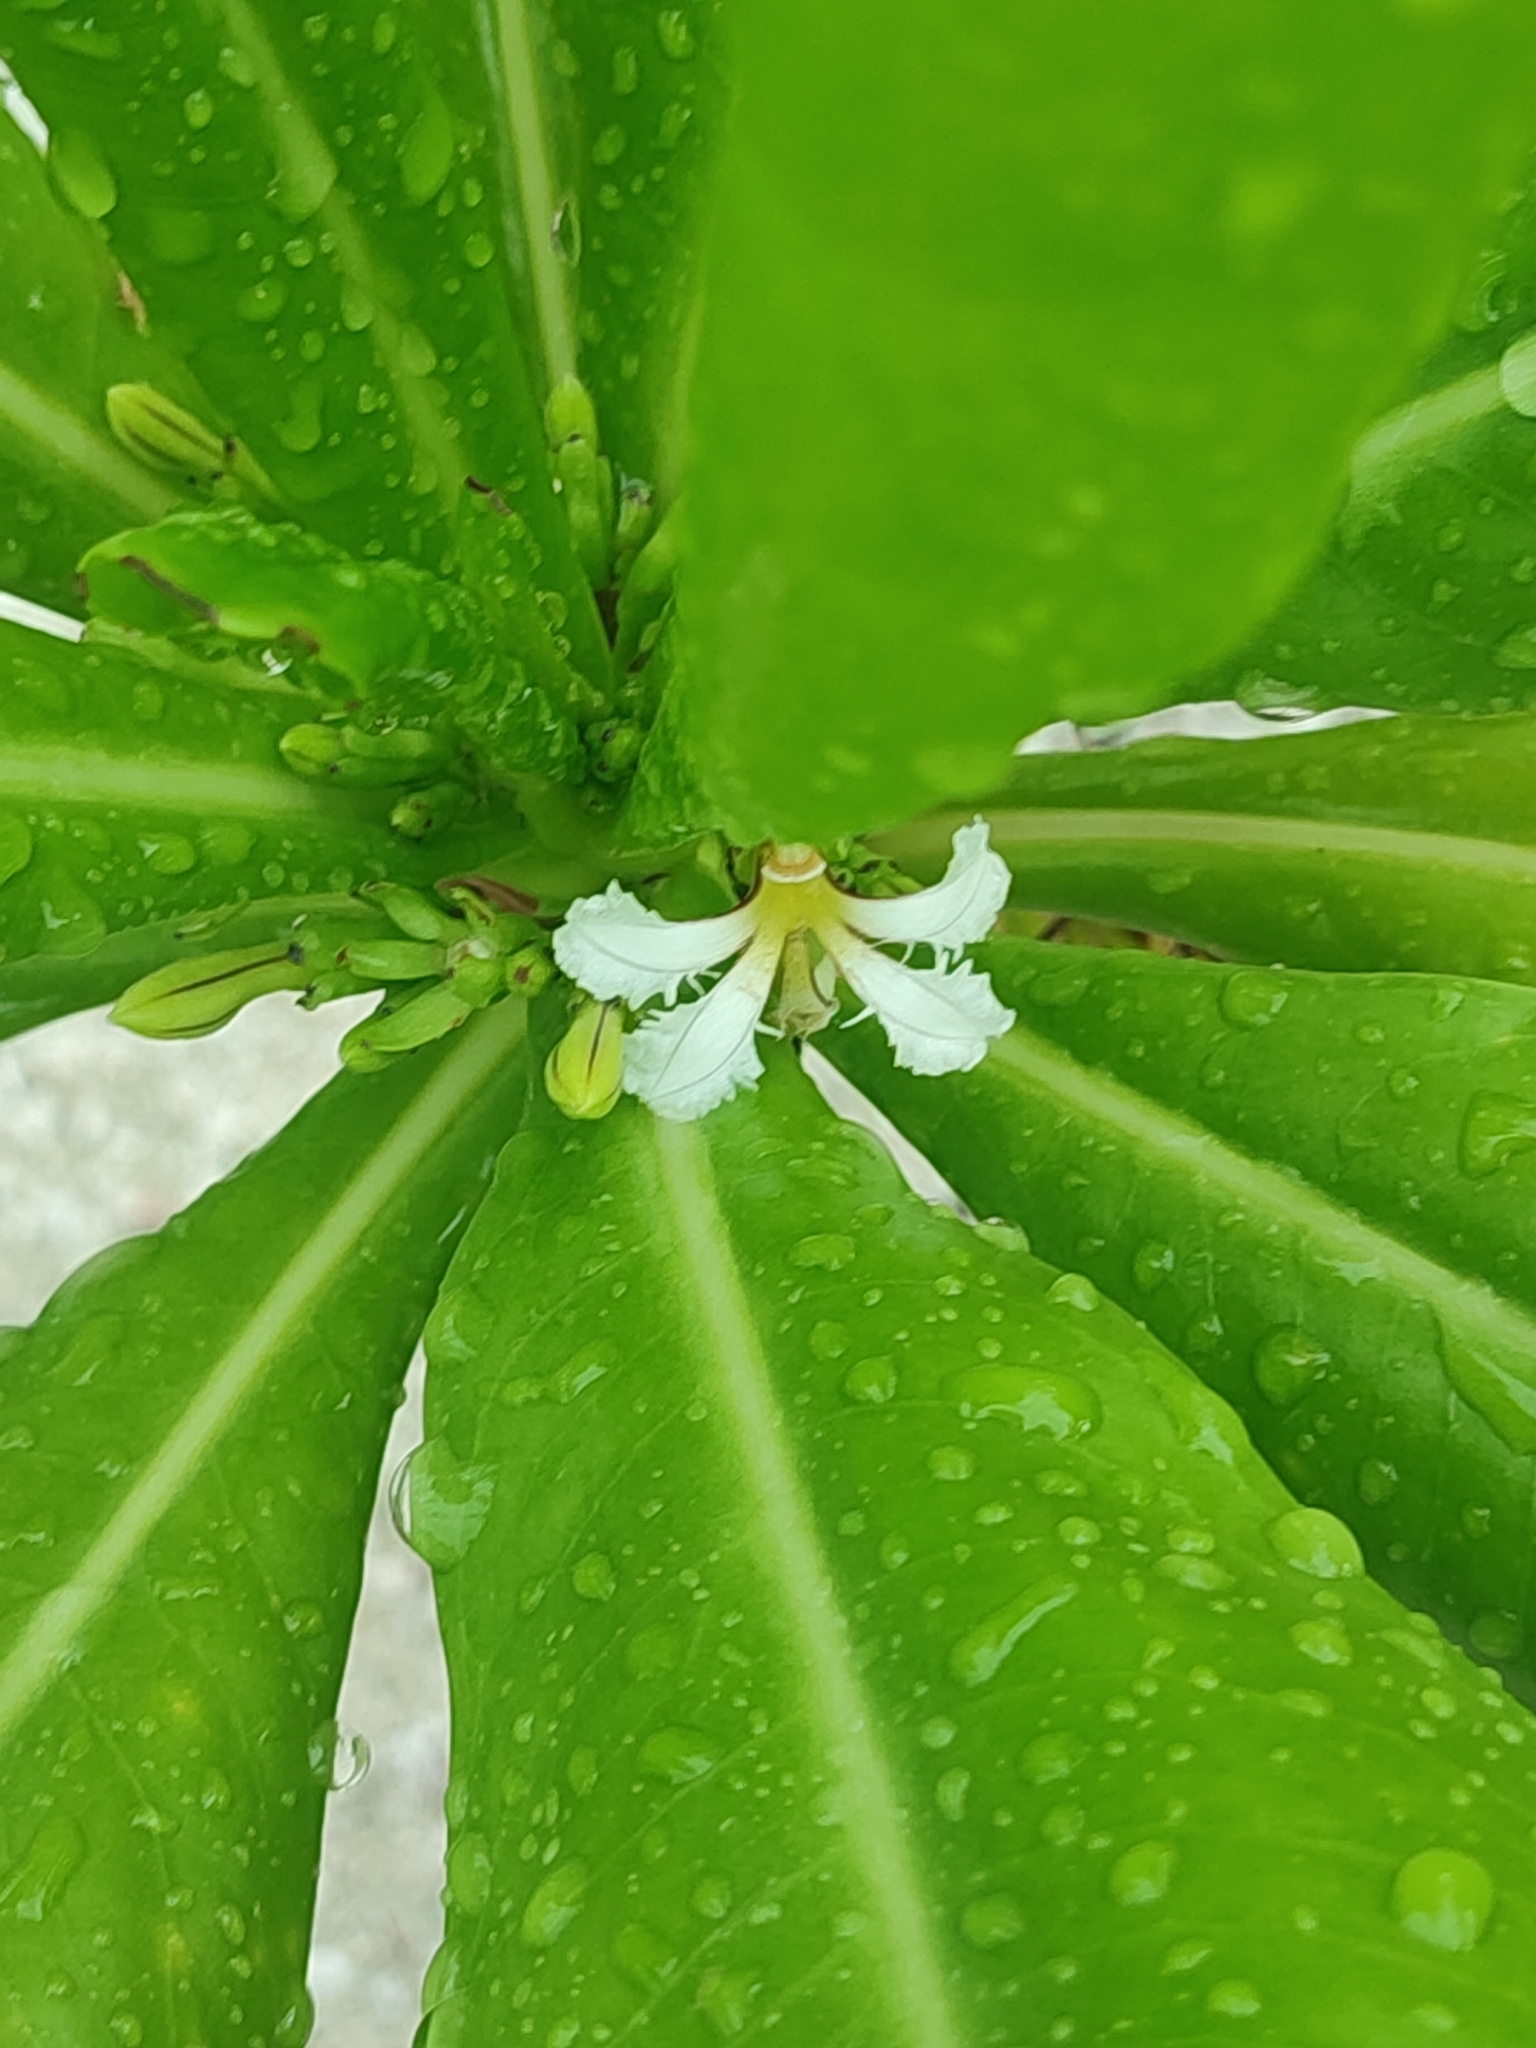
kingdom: Plantae
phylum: Tracheophyta
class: Magnoliopsida
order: Asterales
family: Goodeniaceae
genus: Scaevola
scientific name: Scaevola taccada
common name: Sea lettucetree
